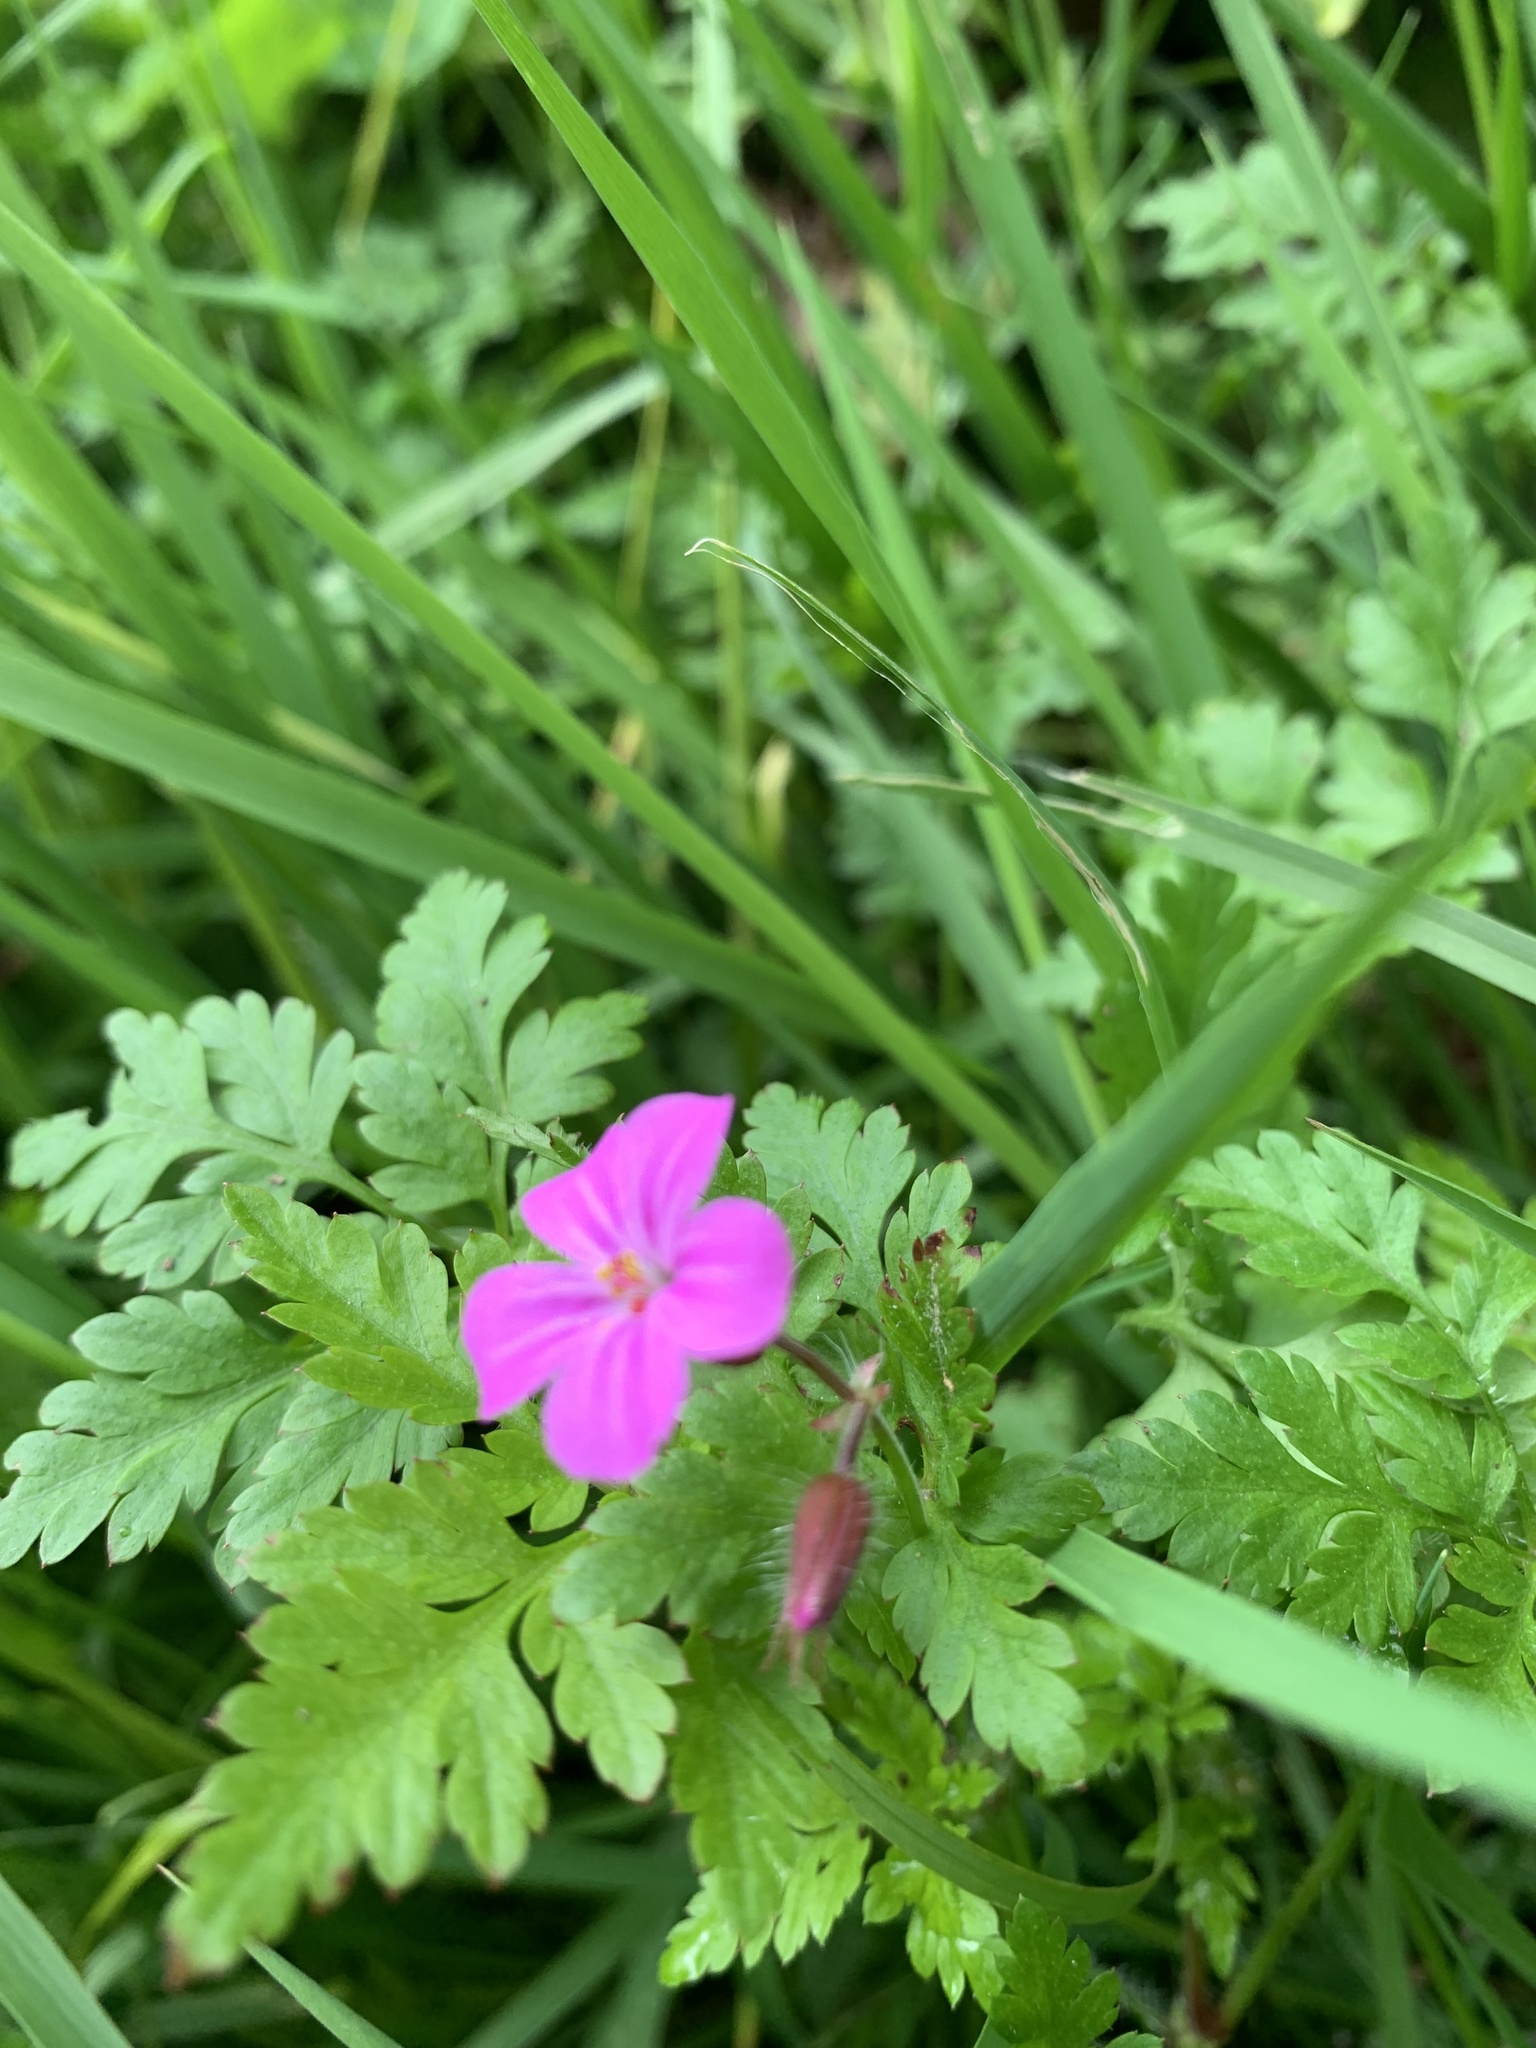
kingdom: Plantae
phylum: Tracheophyta
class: Magnoliopsida
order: Geraniales
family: Geraniaceae
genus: Geranium
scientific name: Geranium robertianum
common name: Herb-robert
